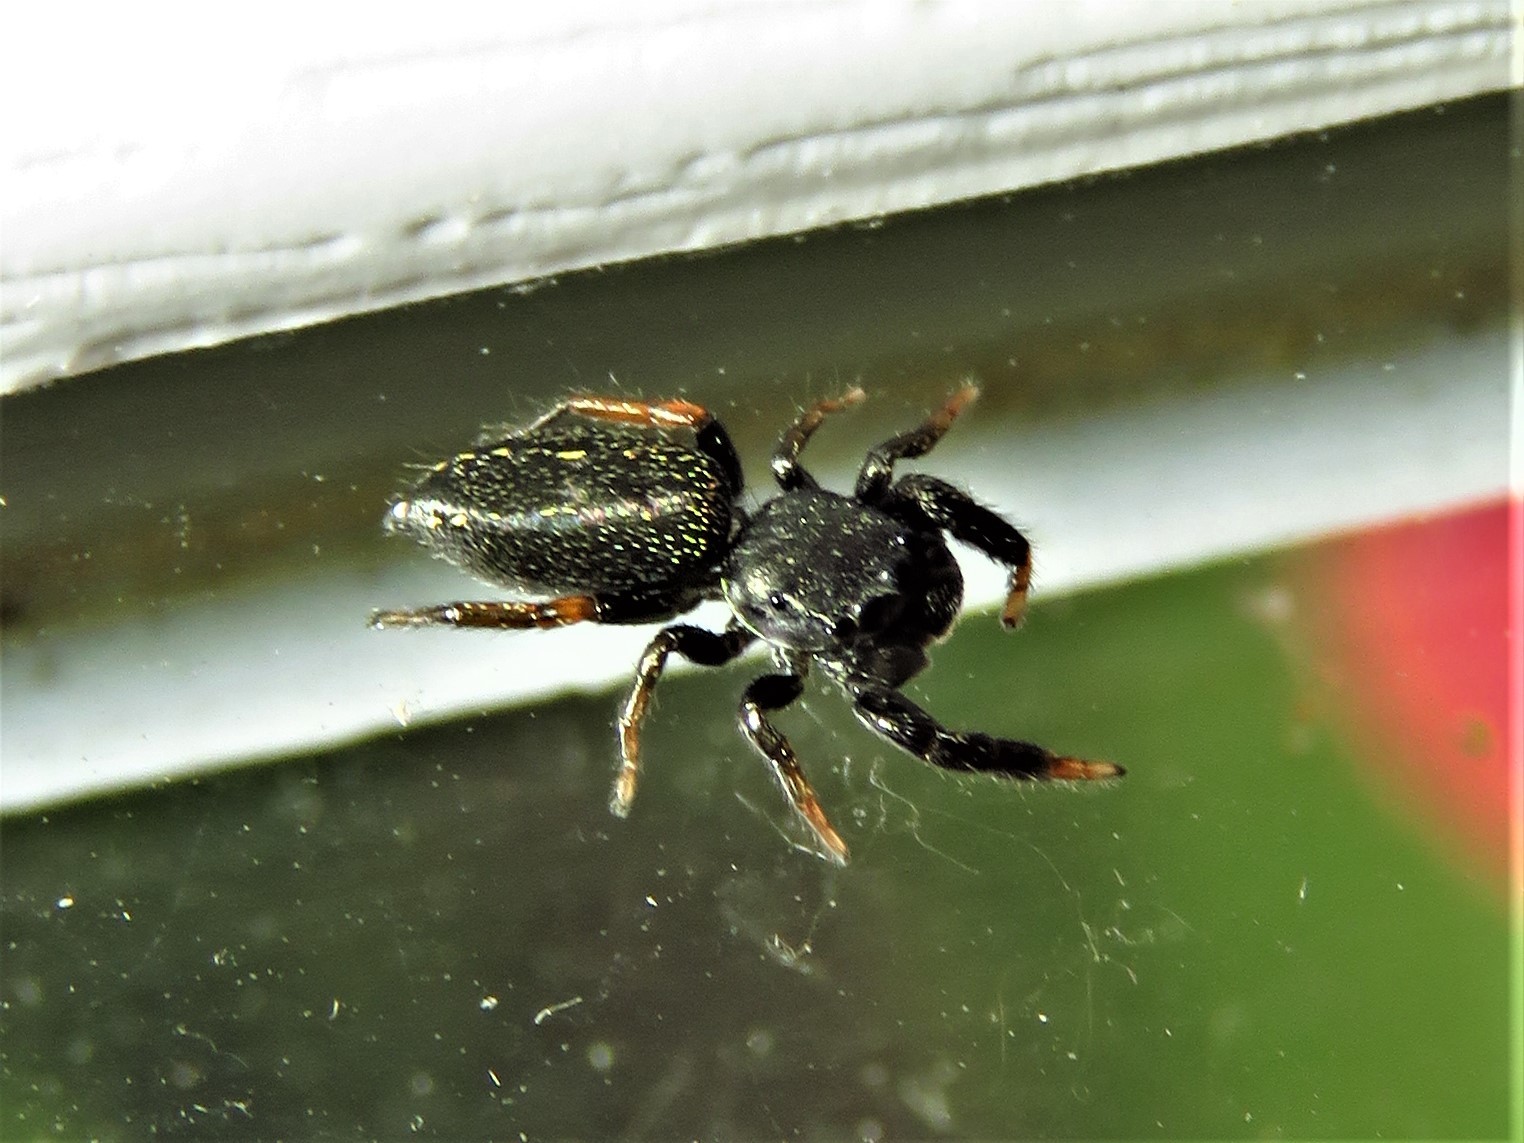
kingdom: Animalia
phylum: Arthropoda
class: Arachnida
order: Araneae
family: Salticidae
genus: Metacyrba
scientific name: Metacyrba taeniola
